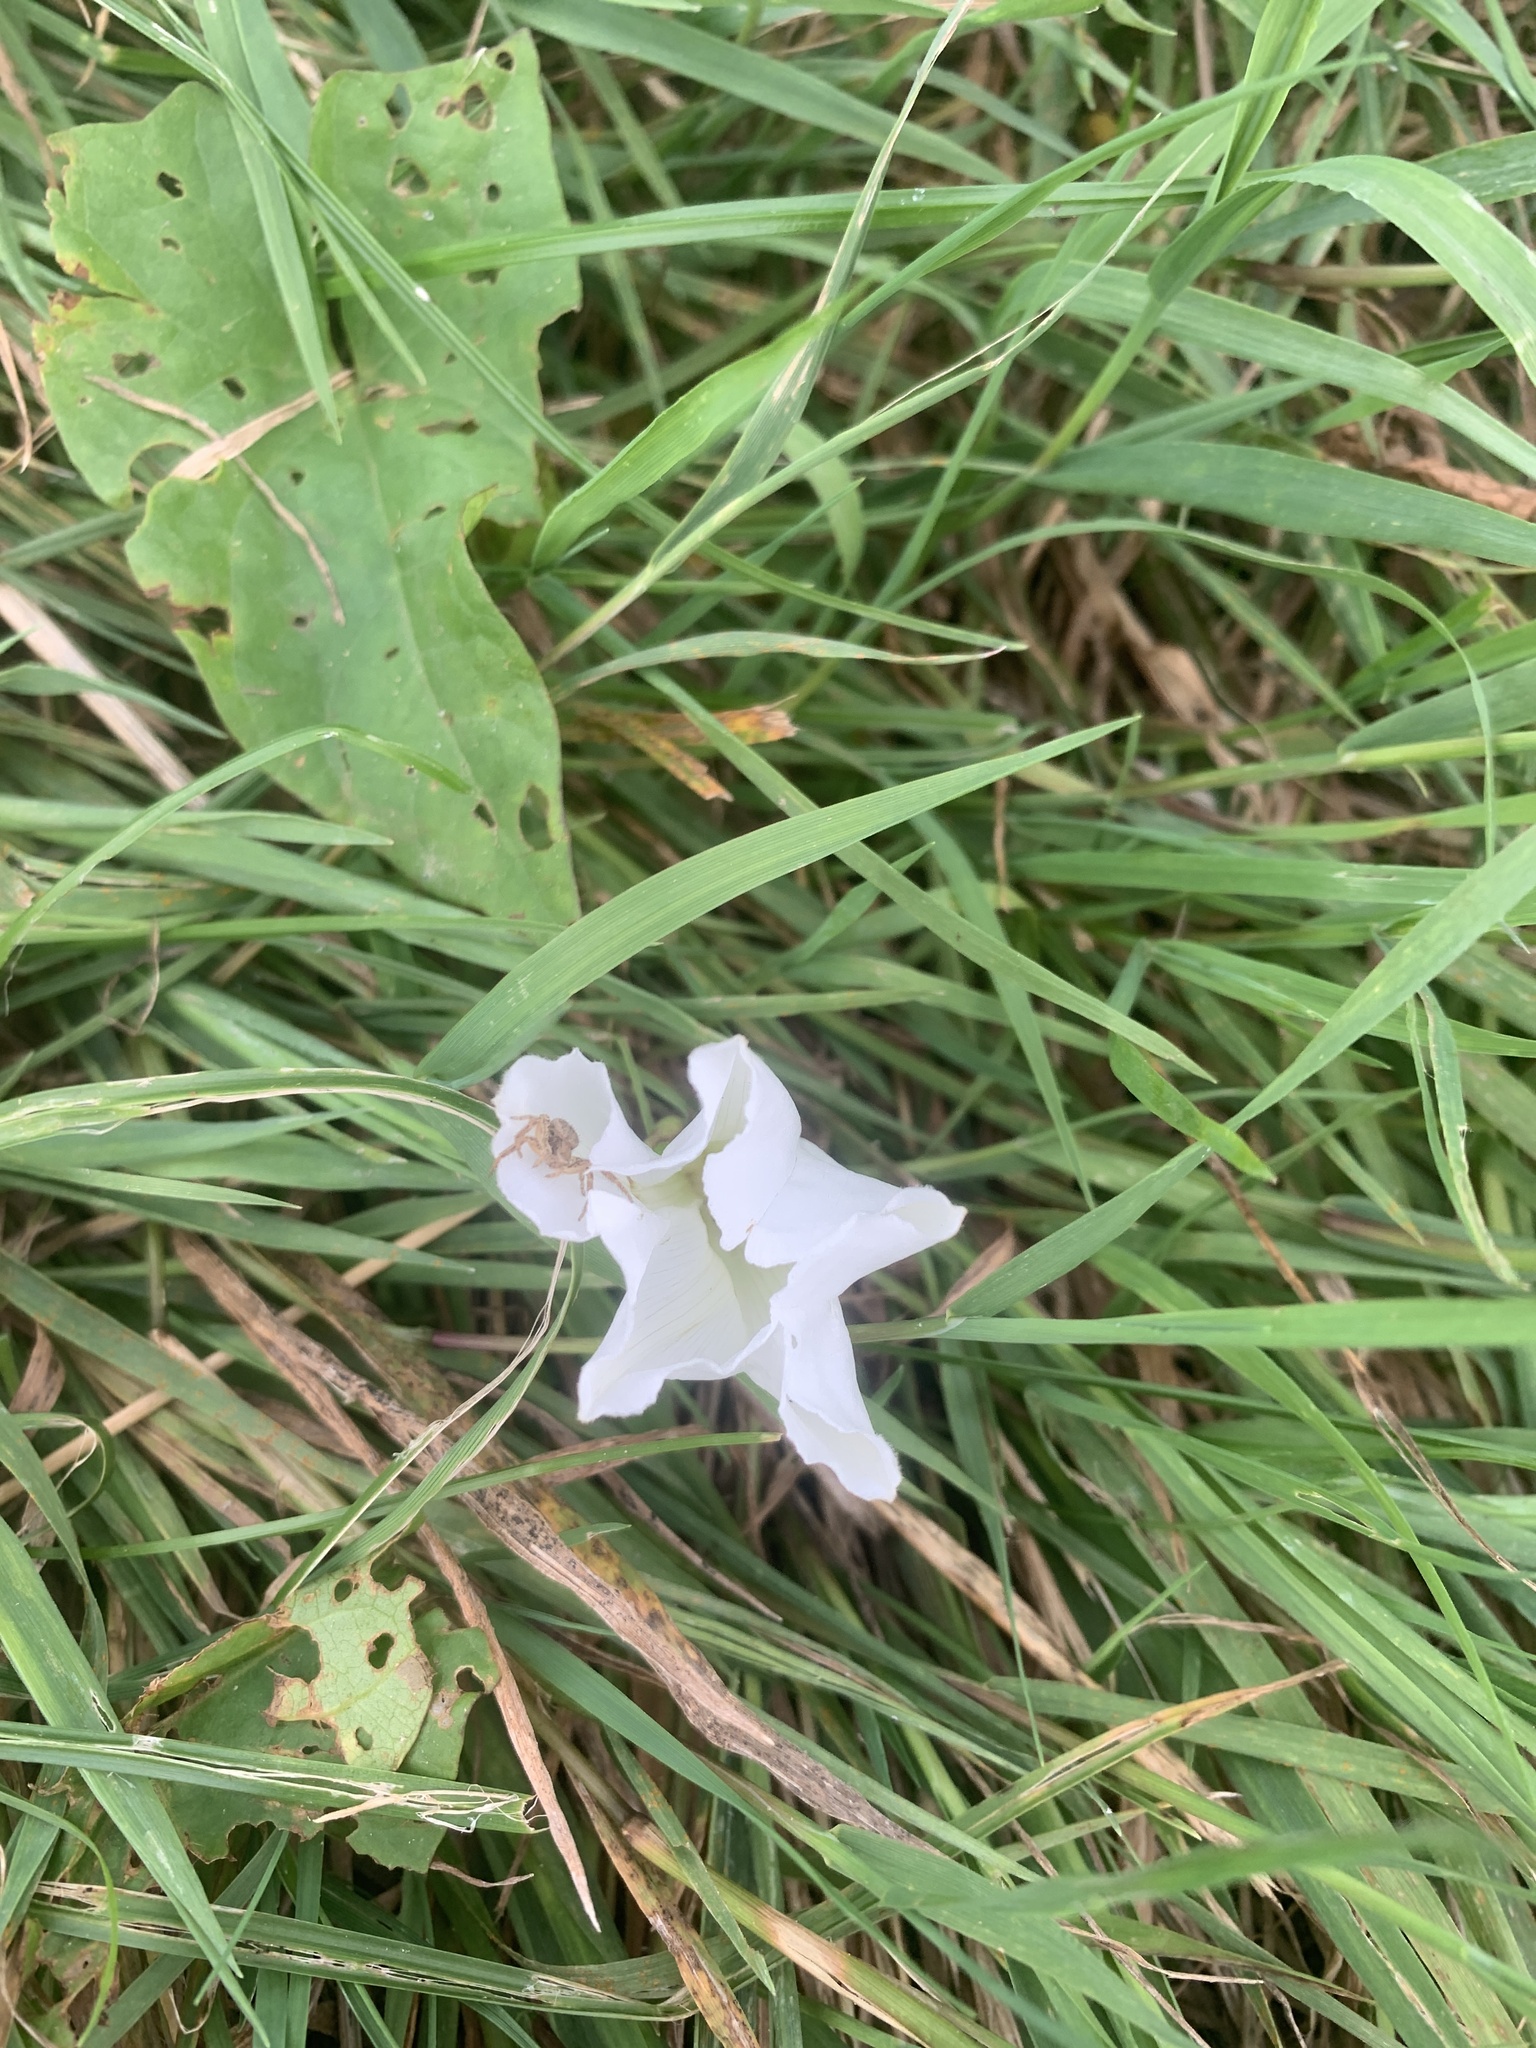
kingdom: Plantae
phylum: Tracheophyta
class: Magnoliopsida
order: Solanales
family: Convolvulaceae
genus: Calystegia
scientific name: Calystegia sepium
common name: Hedge bindweed
